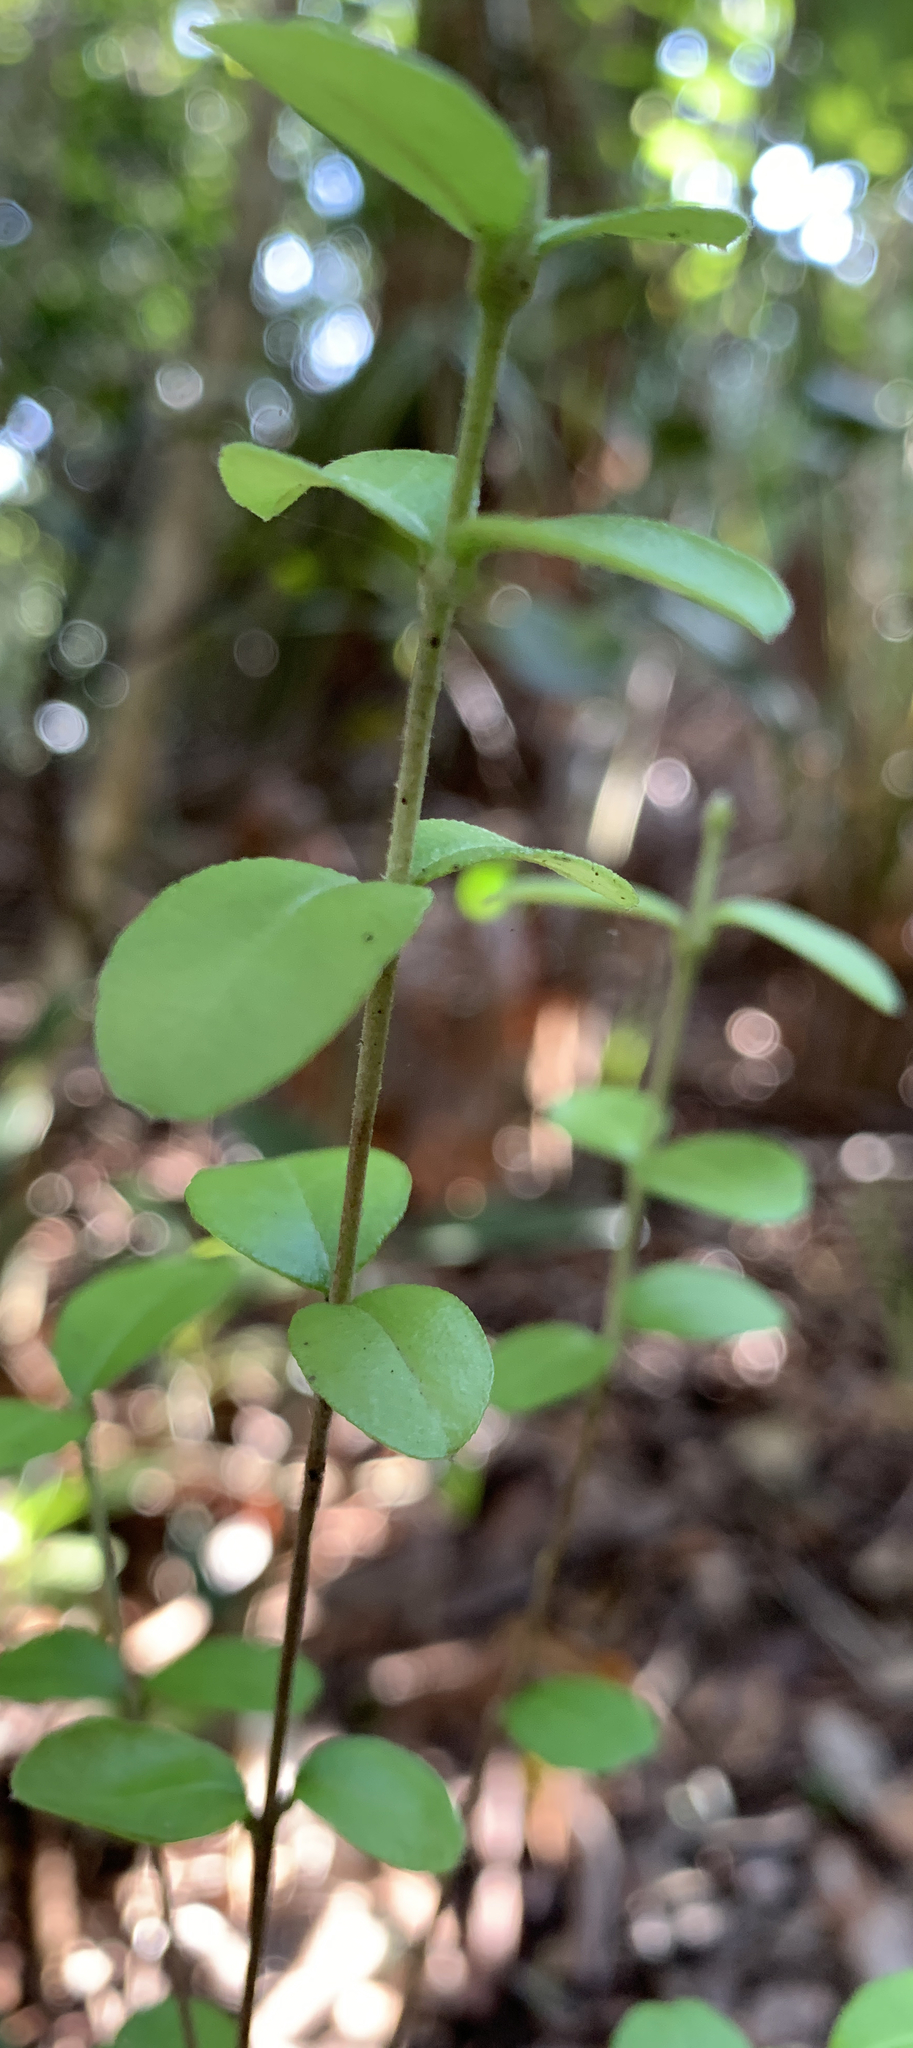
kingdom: Plantae
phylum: Tracheophyta
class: Magnoliopsida
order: Myrtales
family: Myrtaceae
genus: Myrcianthes
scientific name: Myrcianthes fragrans
